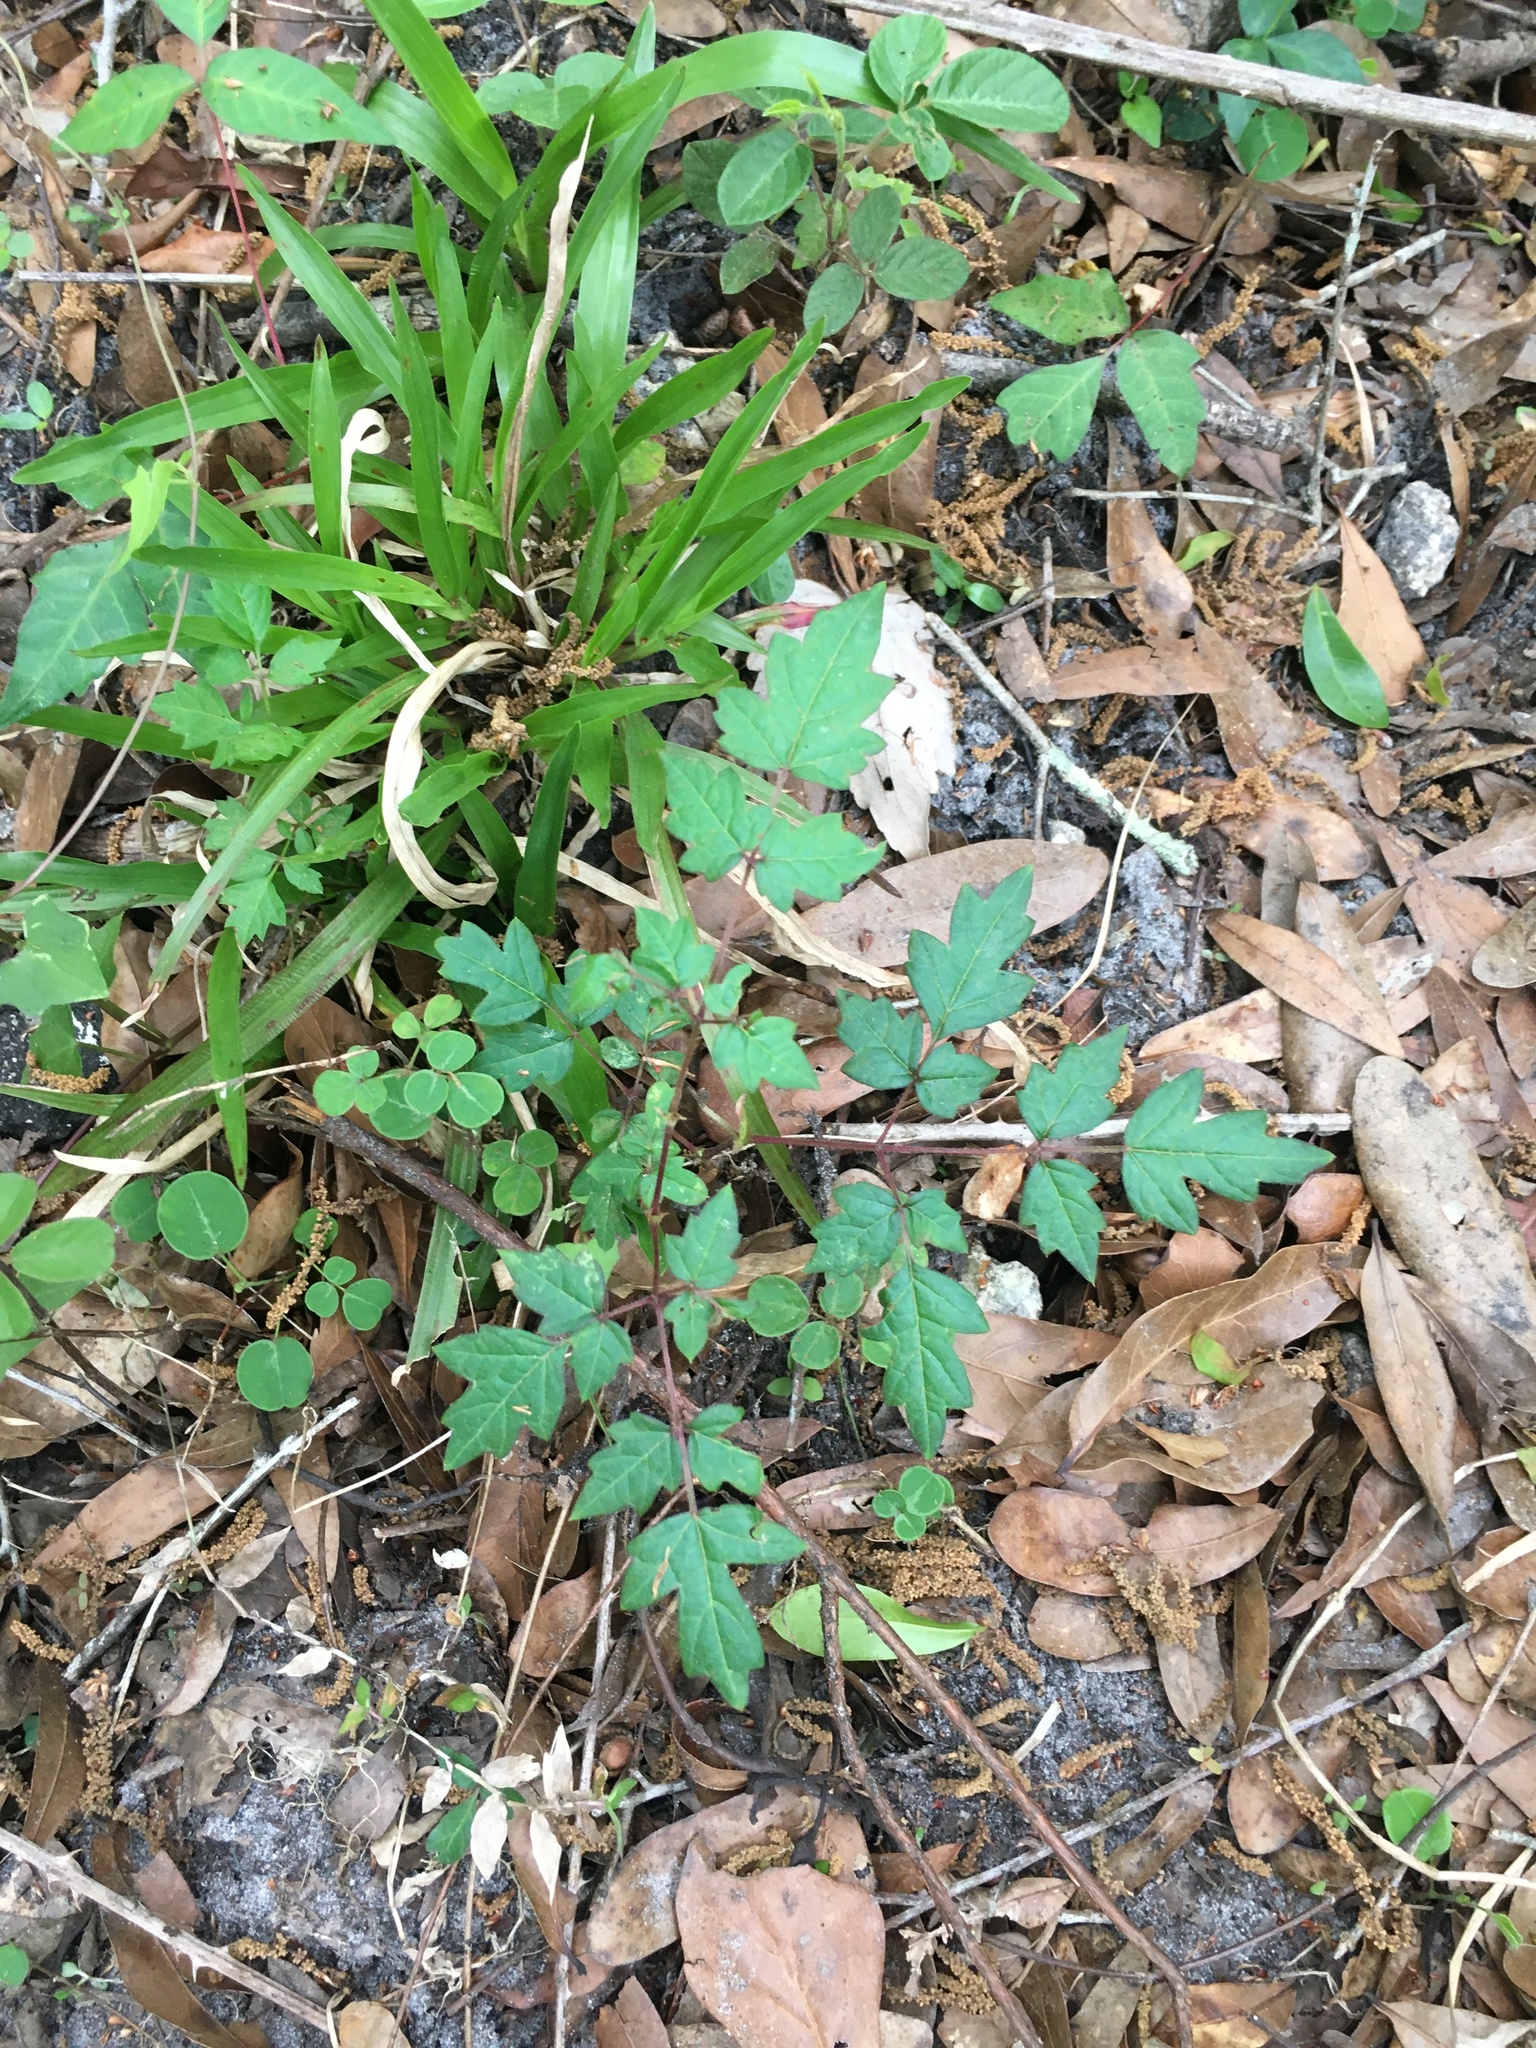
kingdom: Plantae
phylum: Tracheophyta
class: Magnoliopsida
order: Vitales
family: Vitaceae
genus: Nekemias
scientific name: Nekemias arborea
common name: Peppervine
